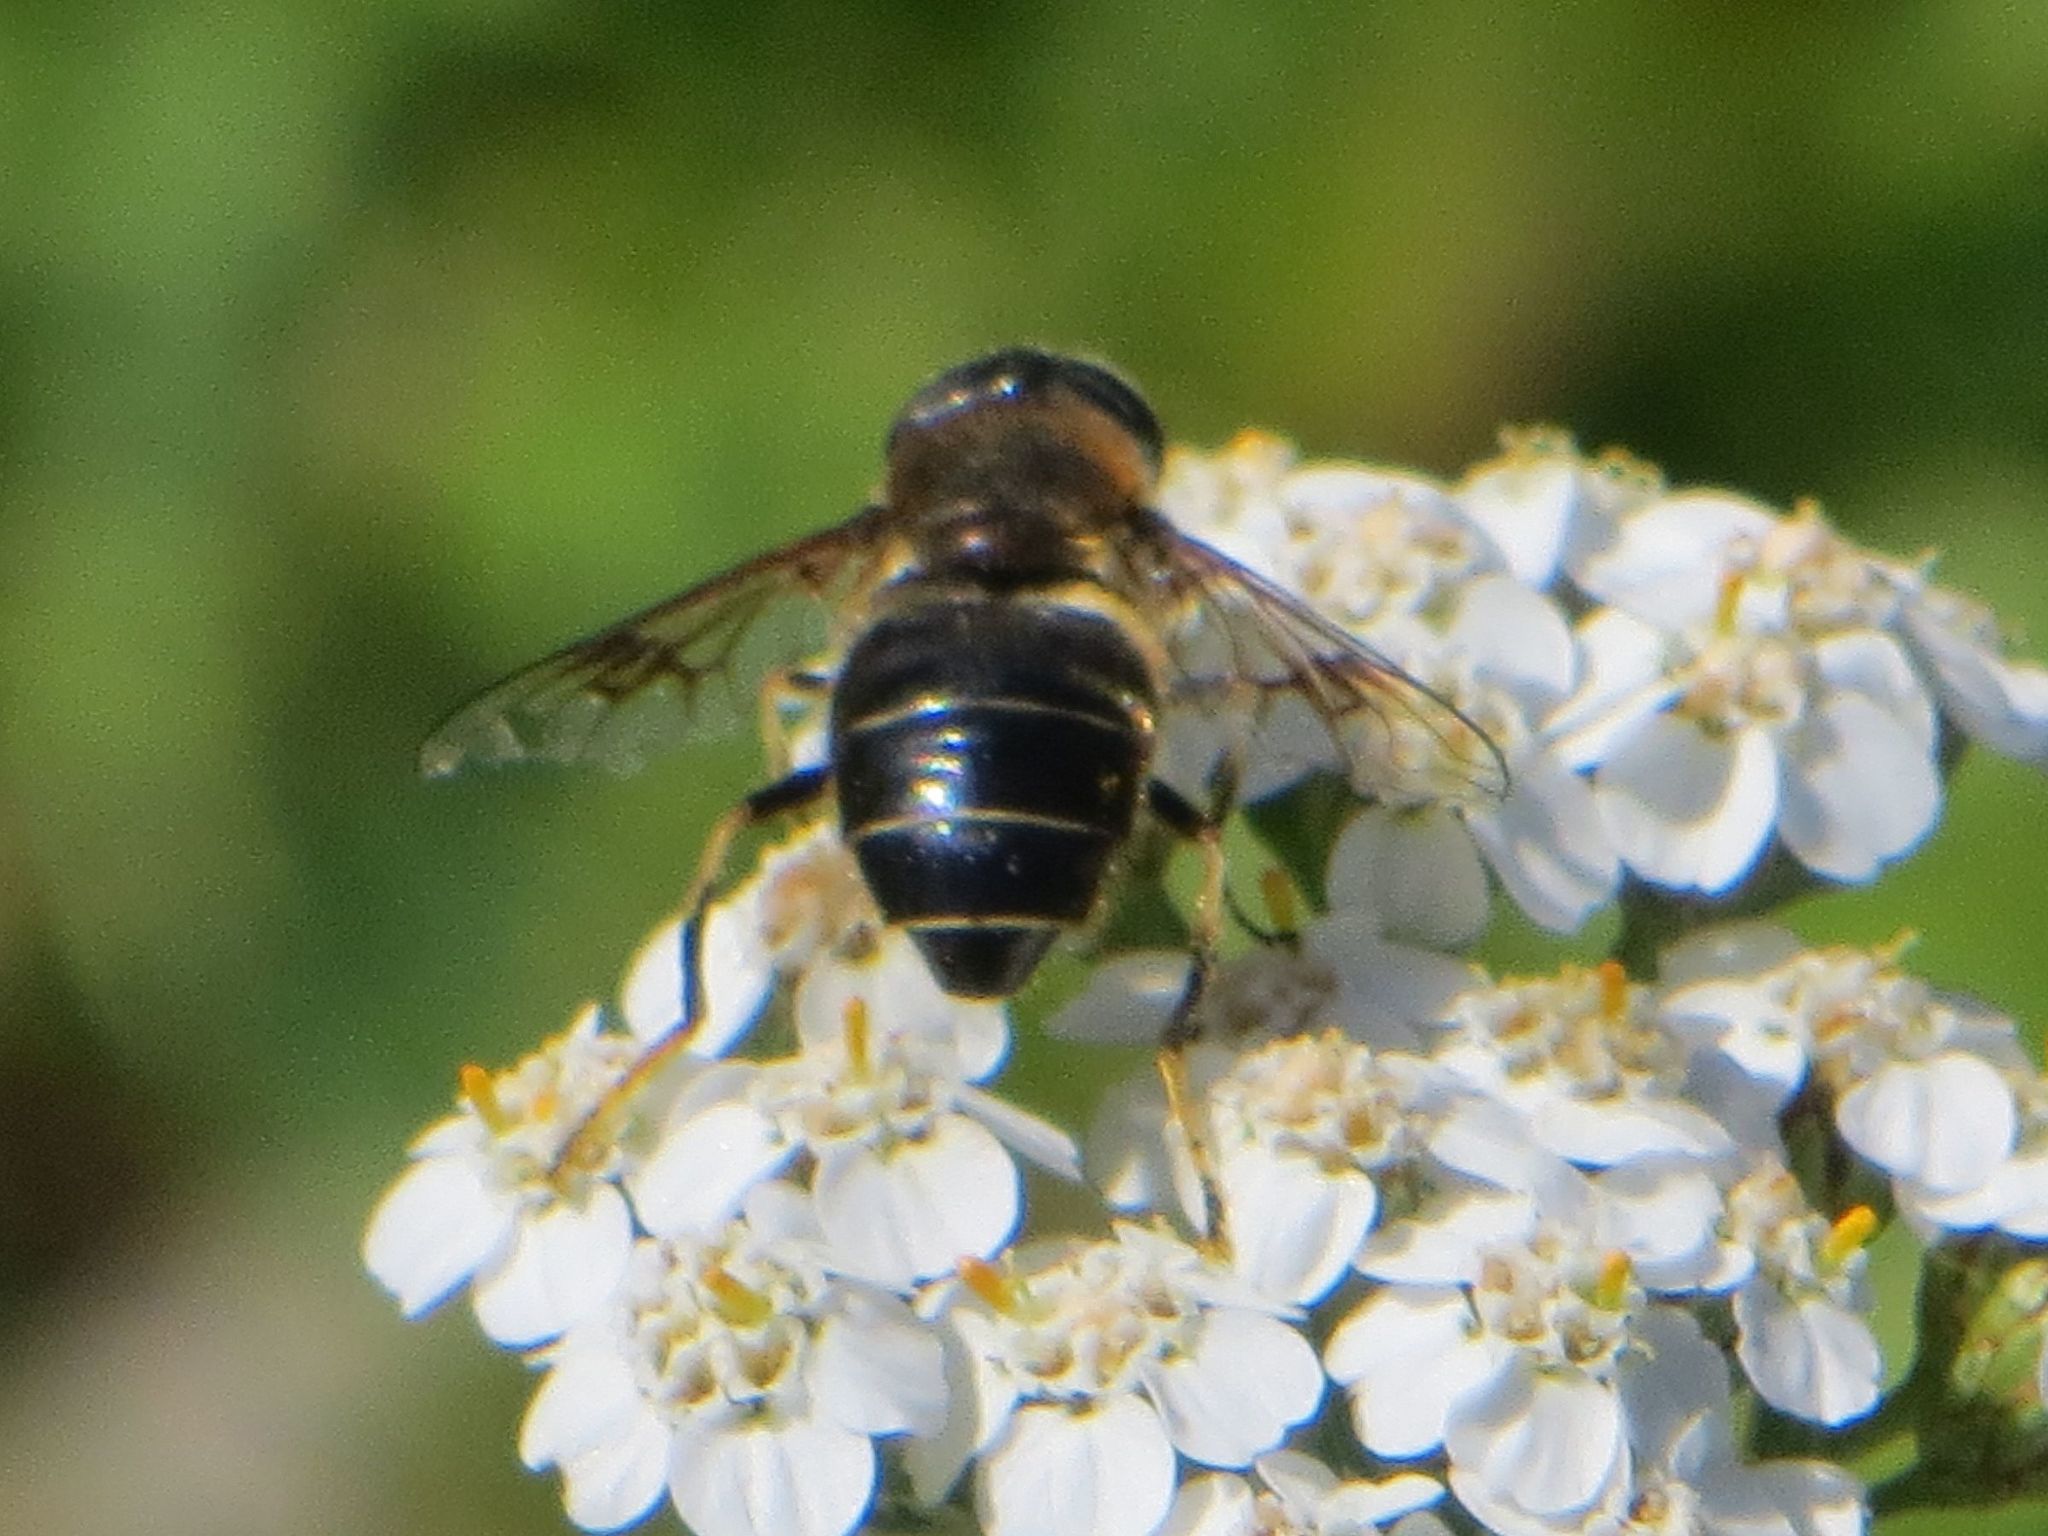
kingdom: Animalia
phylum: Arthropoda
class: Insecta
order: Diptera
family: Syrphidae
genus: Eristalis
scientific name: Eristalis rupium
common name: Hover fly
